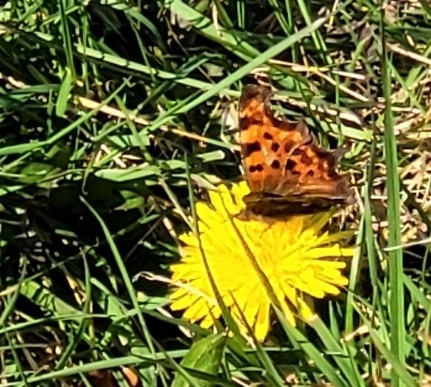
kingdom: Animalia
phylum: Arthropoda
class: Insecta
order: Lepidoptera
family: Nymphalidae
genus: Polygonia
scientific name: Polygonia c-album
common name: Comma
